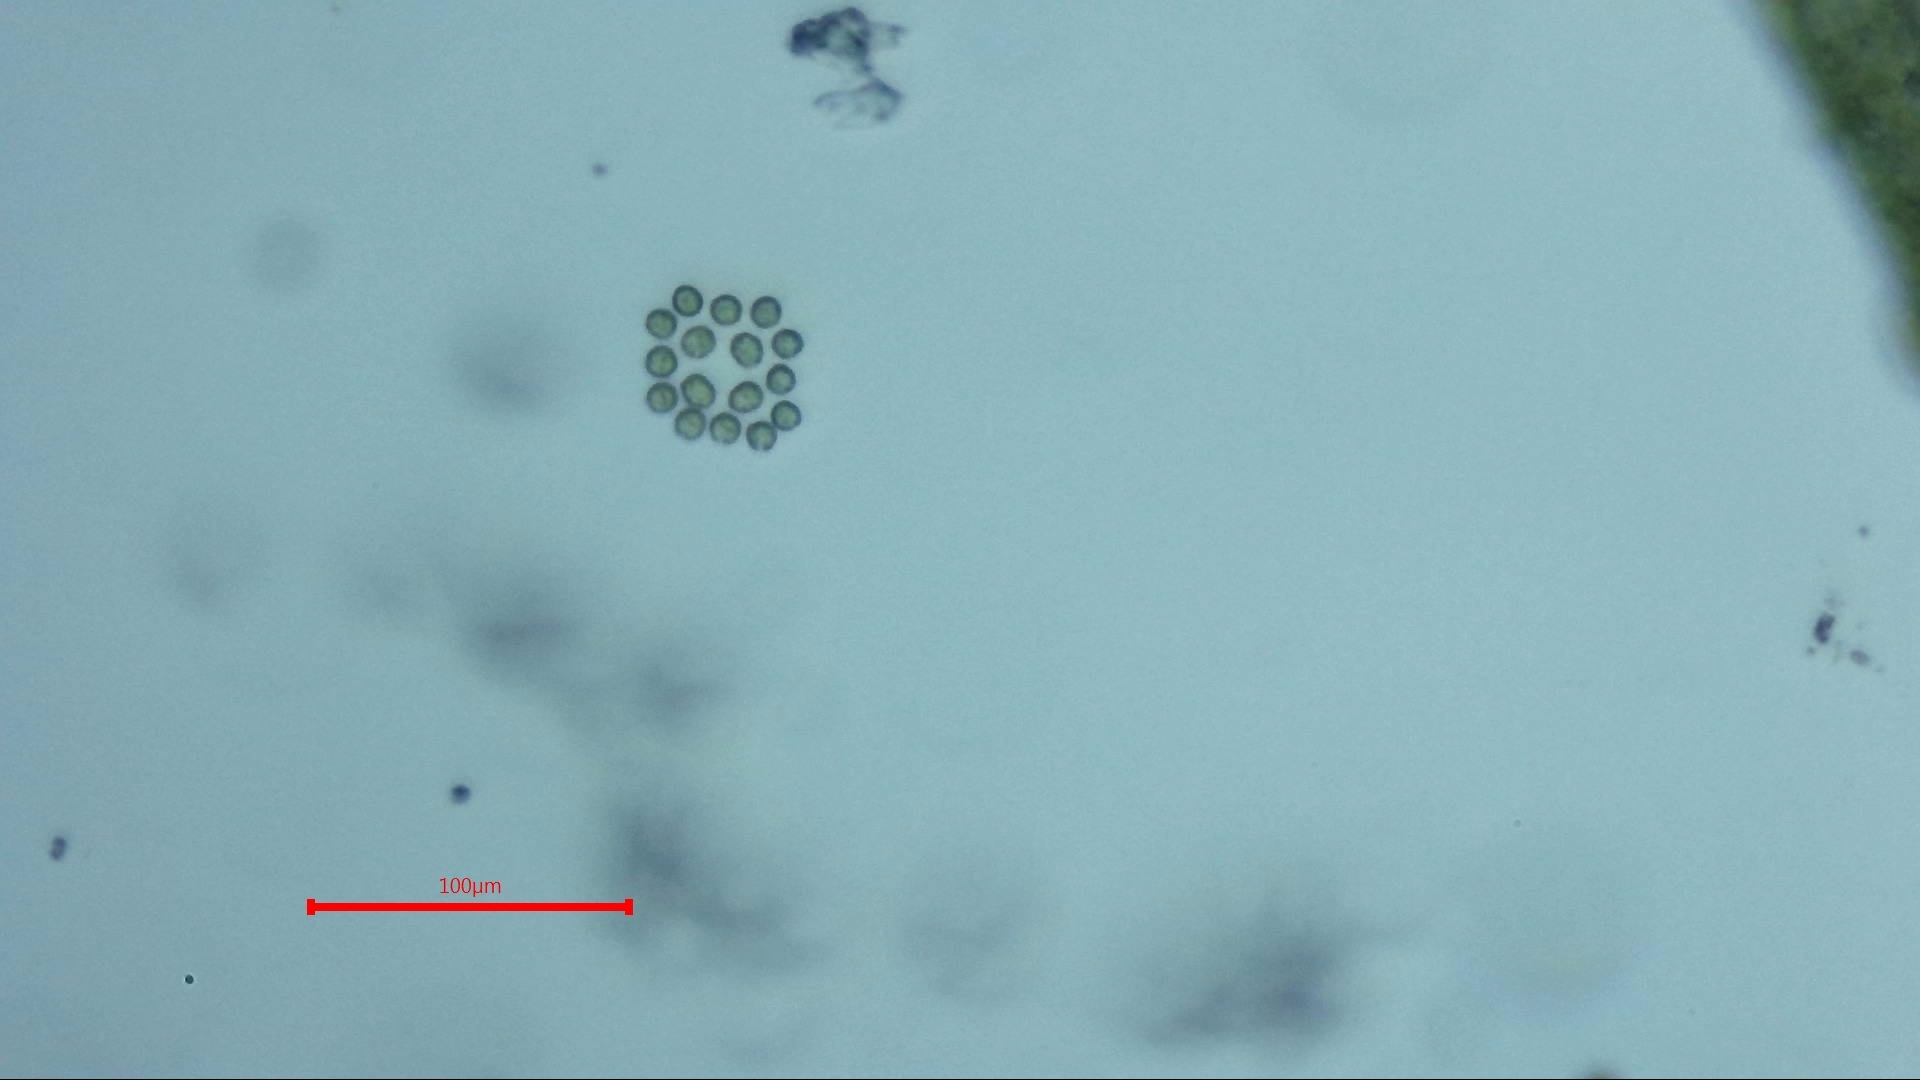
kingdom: Plantae
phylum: Chlorophyta
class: Chlorophyceae
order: Volvocales
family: Goniaceae
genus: Gonium
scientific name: Gonium pectorale
